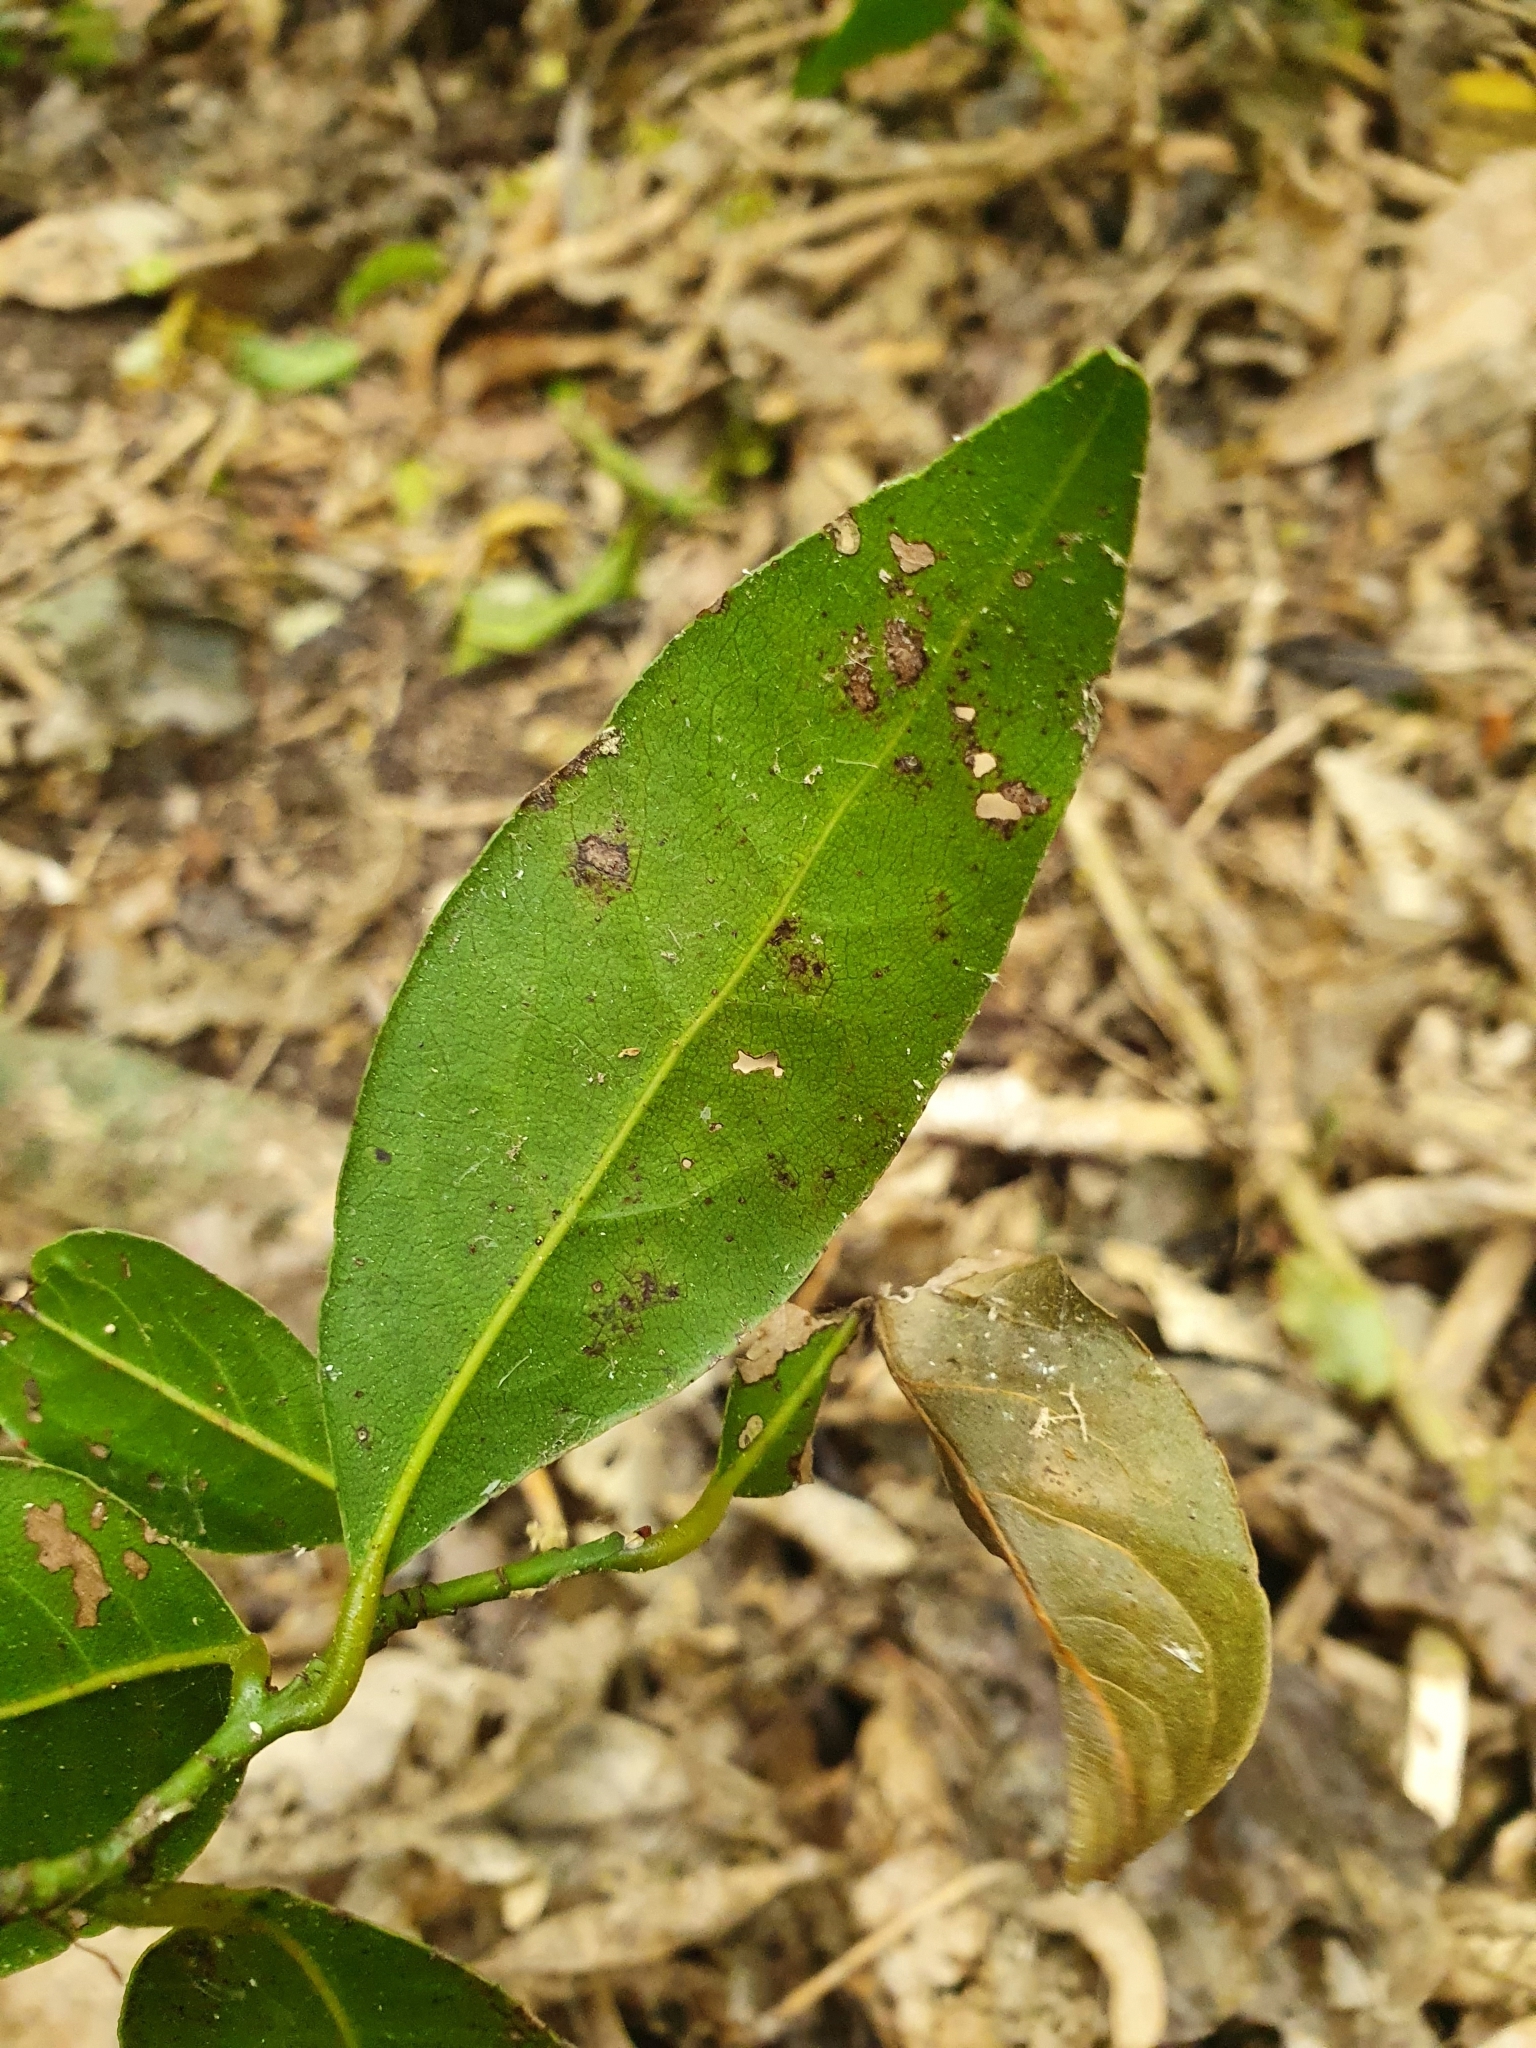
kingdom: Plantae
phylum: Tracheophyta
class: Magnoliopsida
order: Laurales
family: Lauraceae
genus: Laurus
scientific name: Laurus nobilis
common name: Bay
